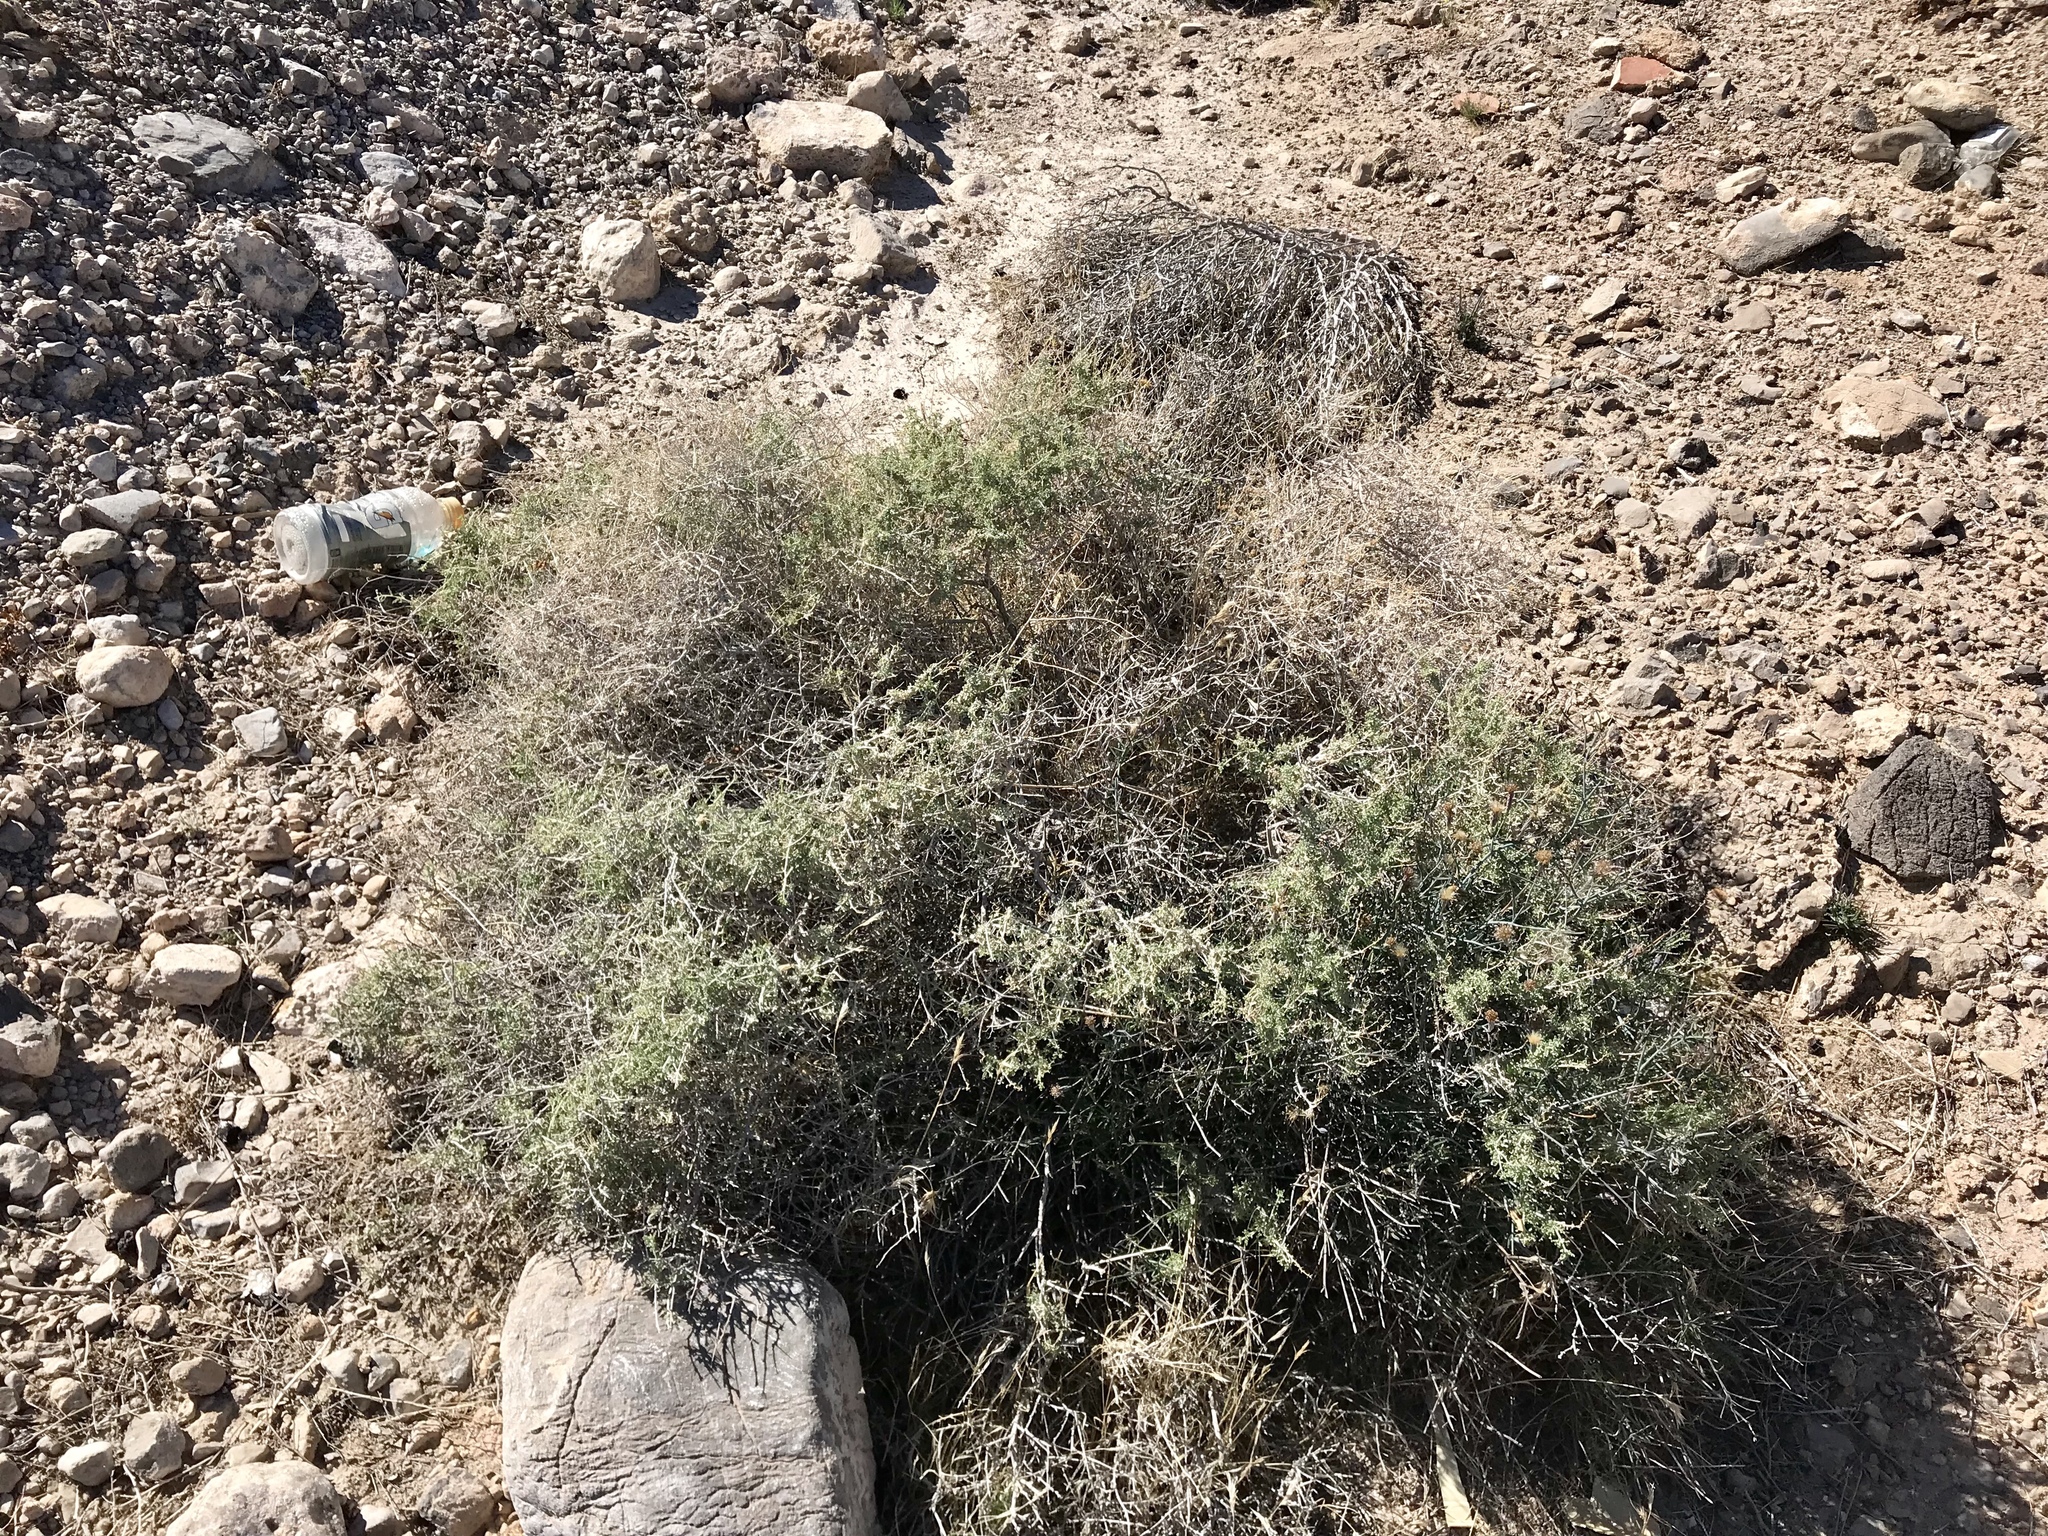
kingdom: Plantae
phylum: Tracheophyta
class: Magnoliopsida
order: Asterales
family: Asteraceae
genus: Ambrosia
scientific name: Ambrosia dumosa
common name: Bur-sage
